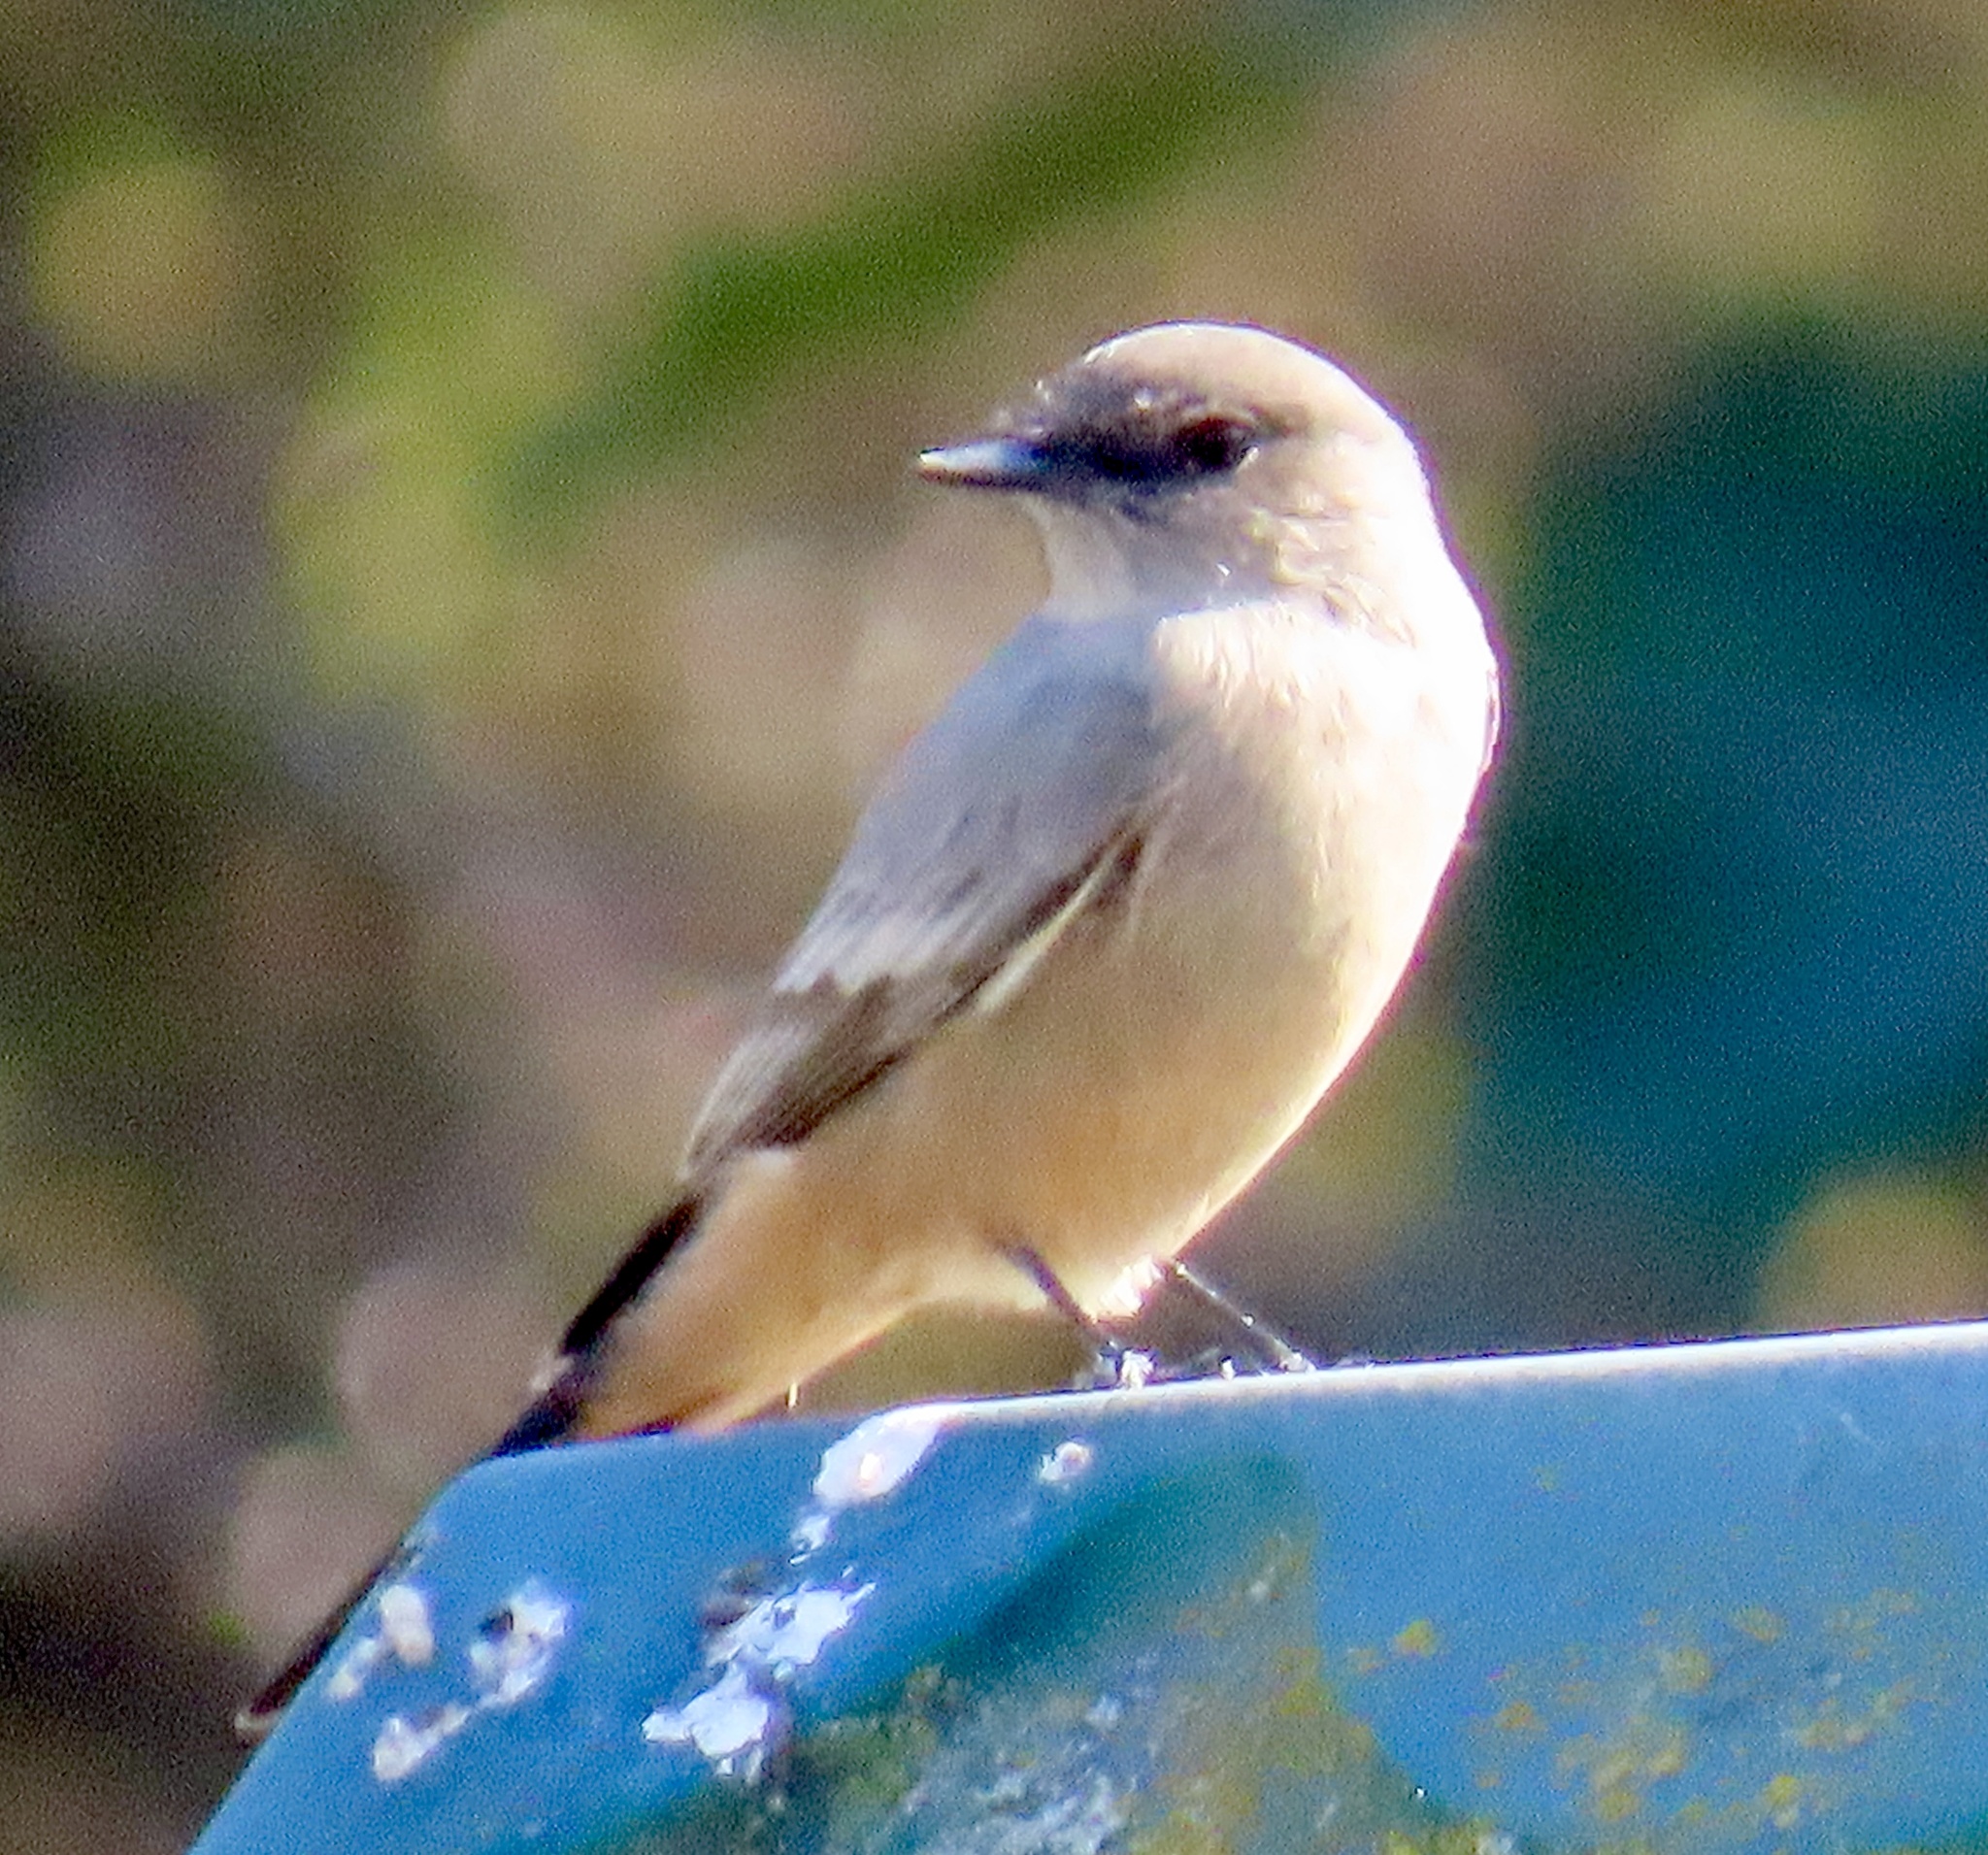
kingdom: Animalia
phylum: Chordata
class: Aves
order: Passeriformes
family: Tyrannidae
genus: Sayornis
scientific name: Sayornis saya
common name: Say's phoebe
